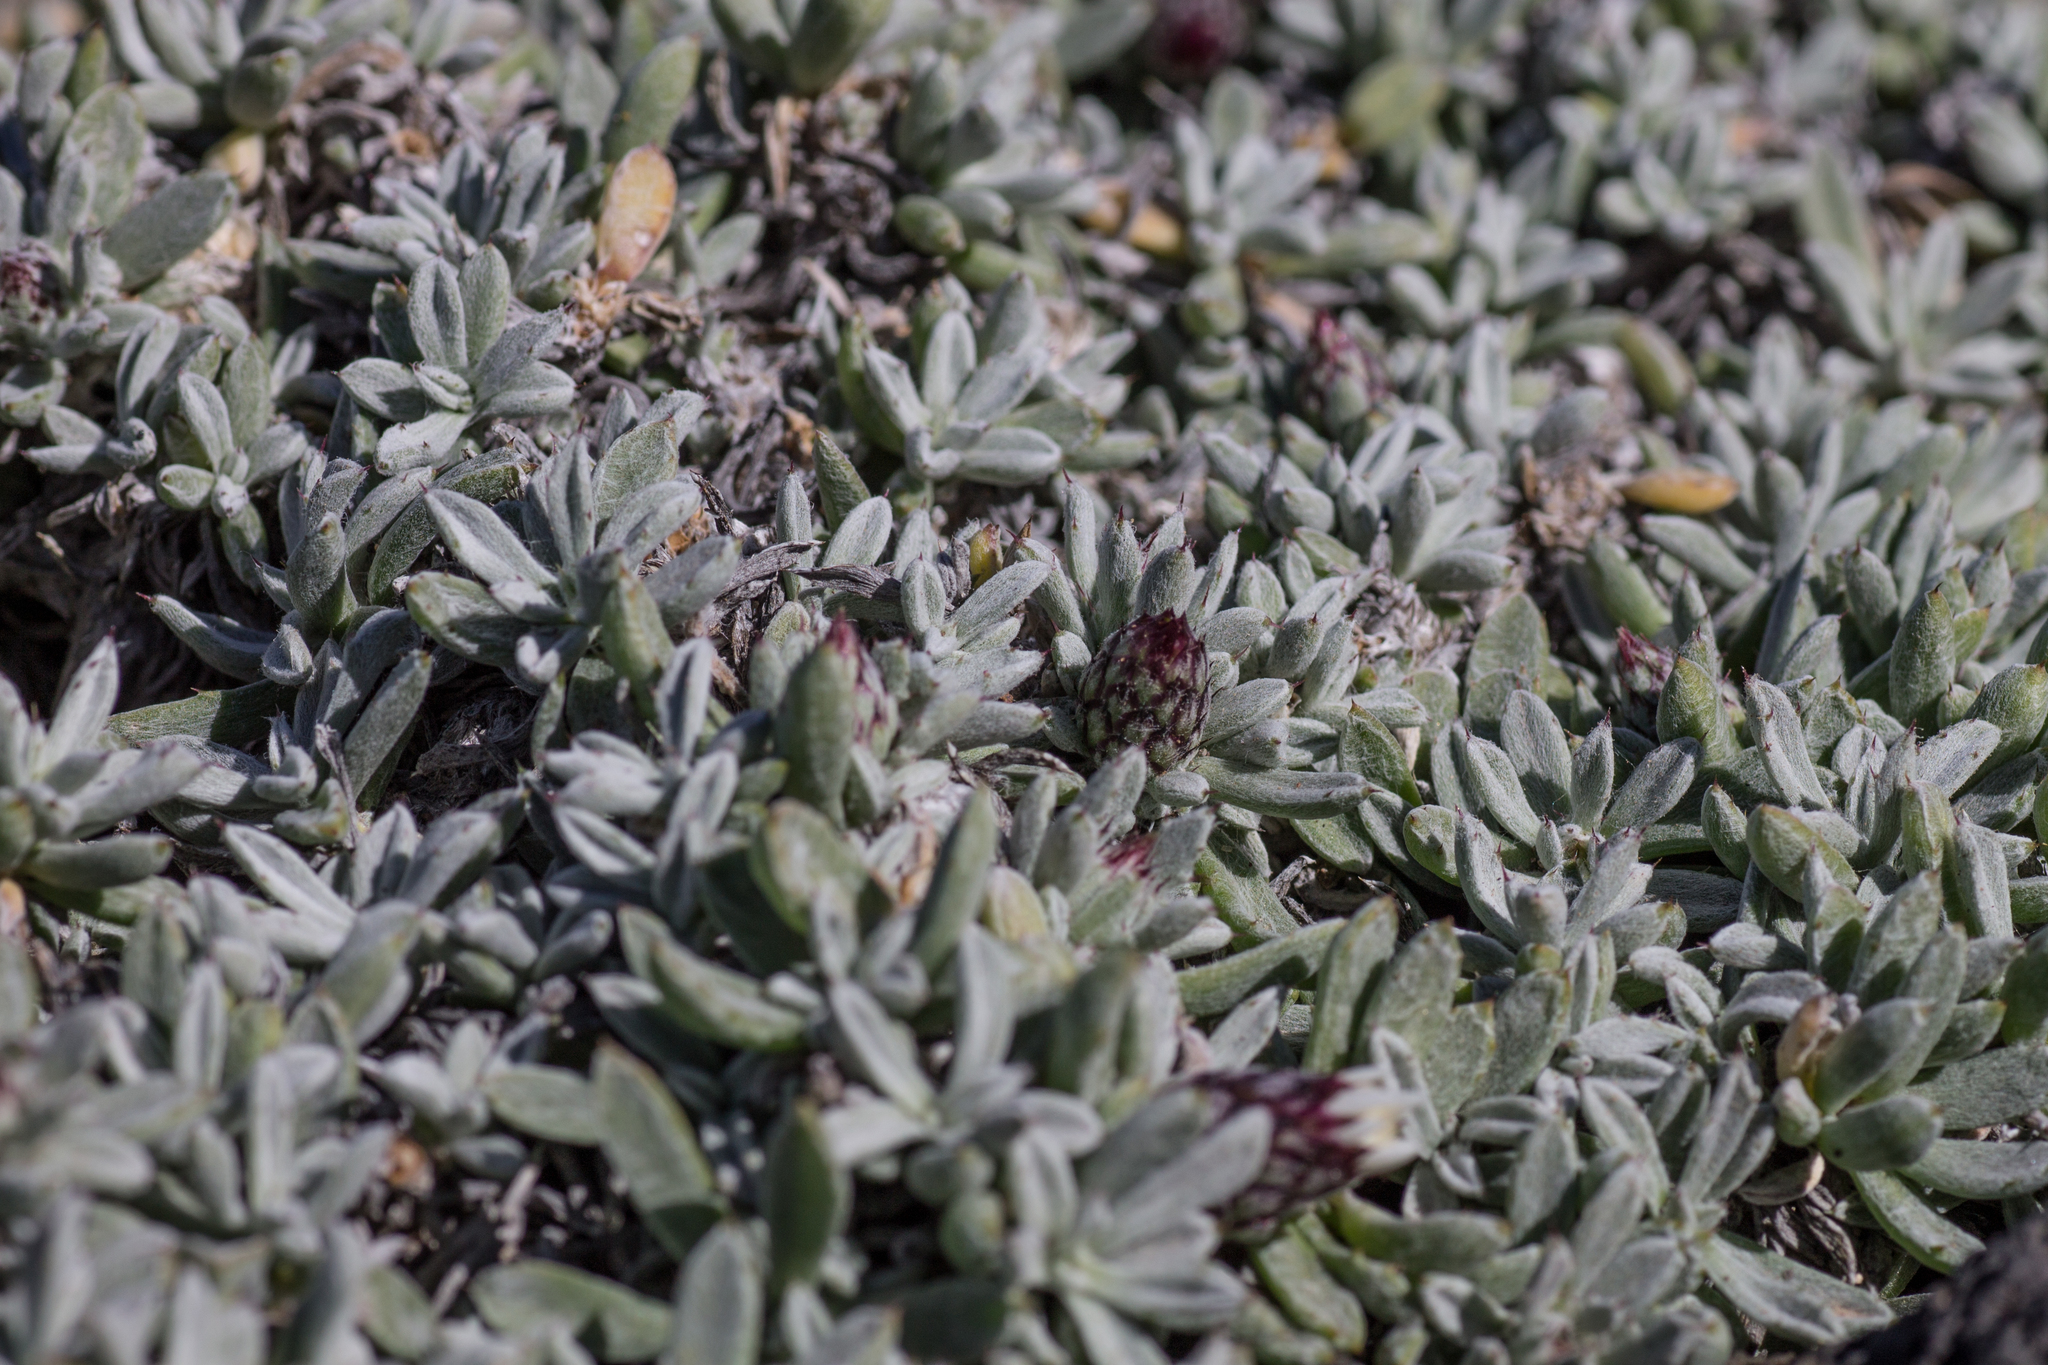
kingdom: Plantae
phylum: Tracheophyta
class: Magnoliopsida
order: Asterales
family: Asteraceae
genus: Atractylis
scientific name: Atractylis preauxiana
